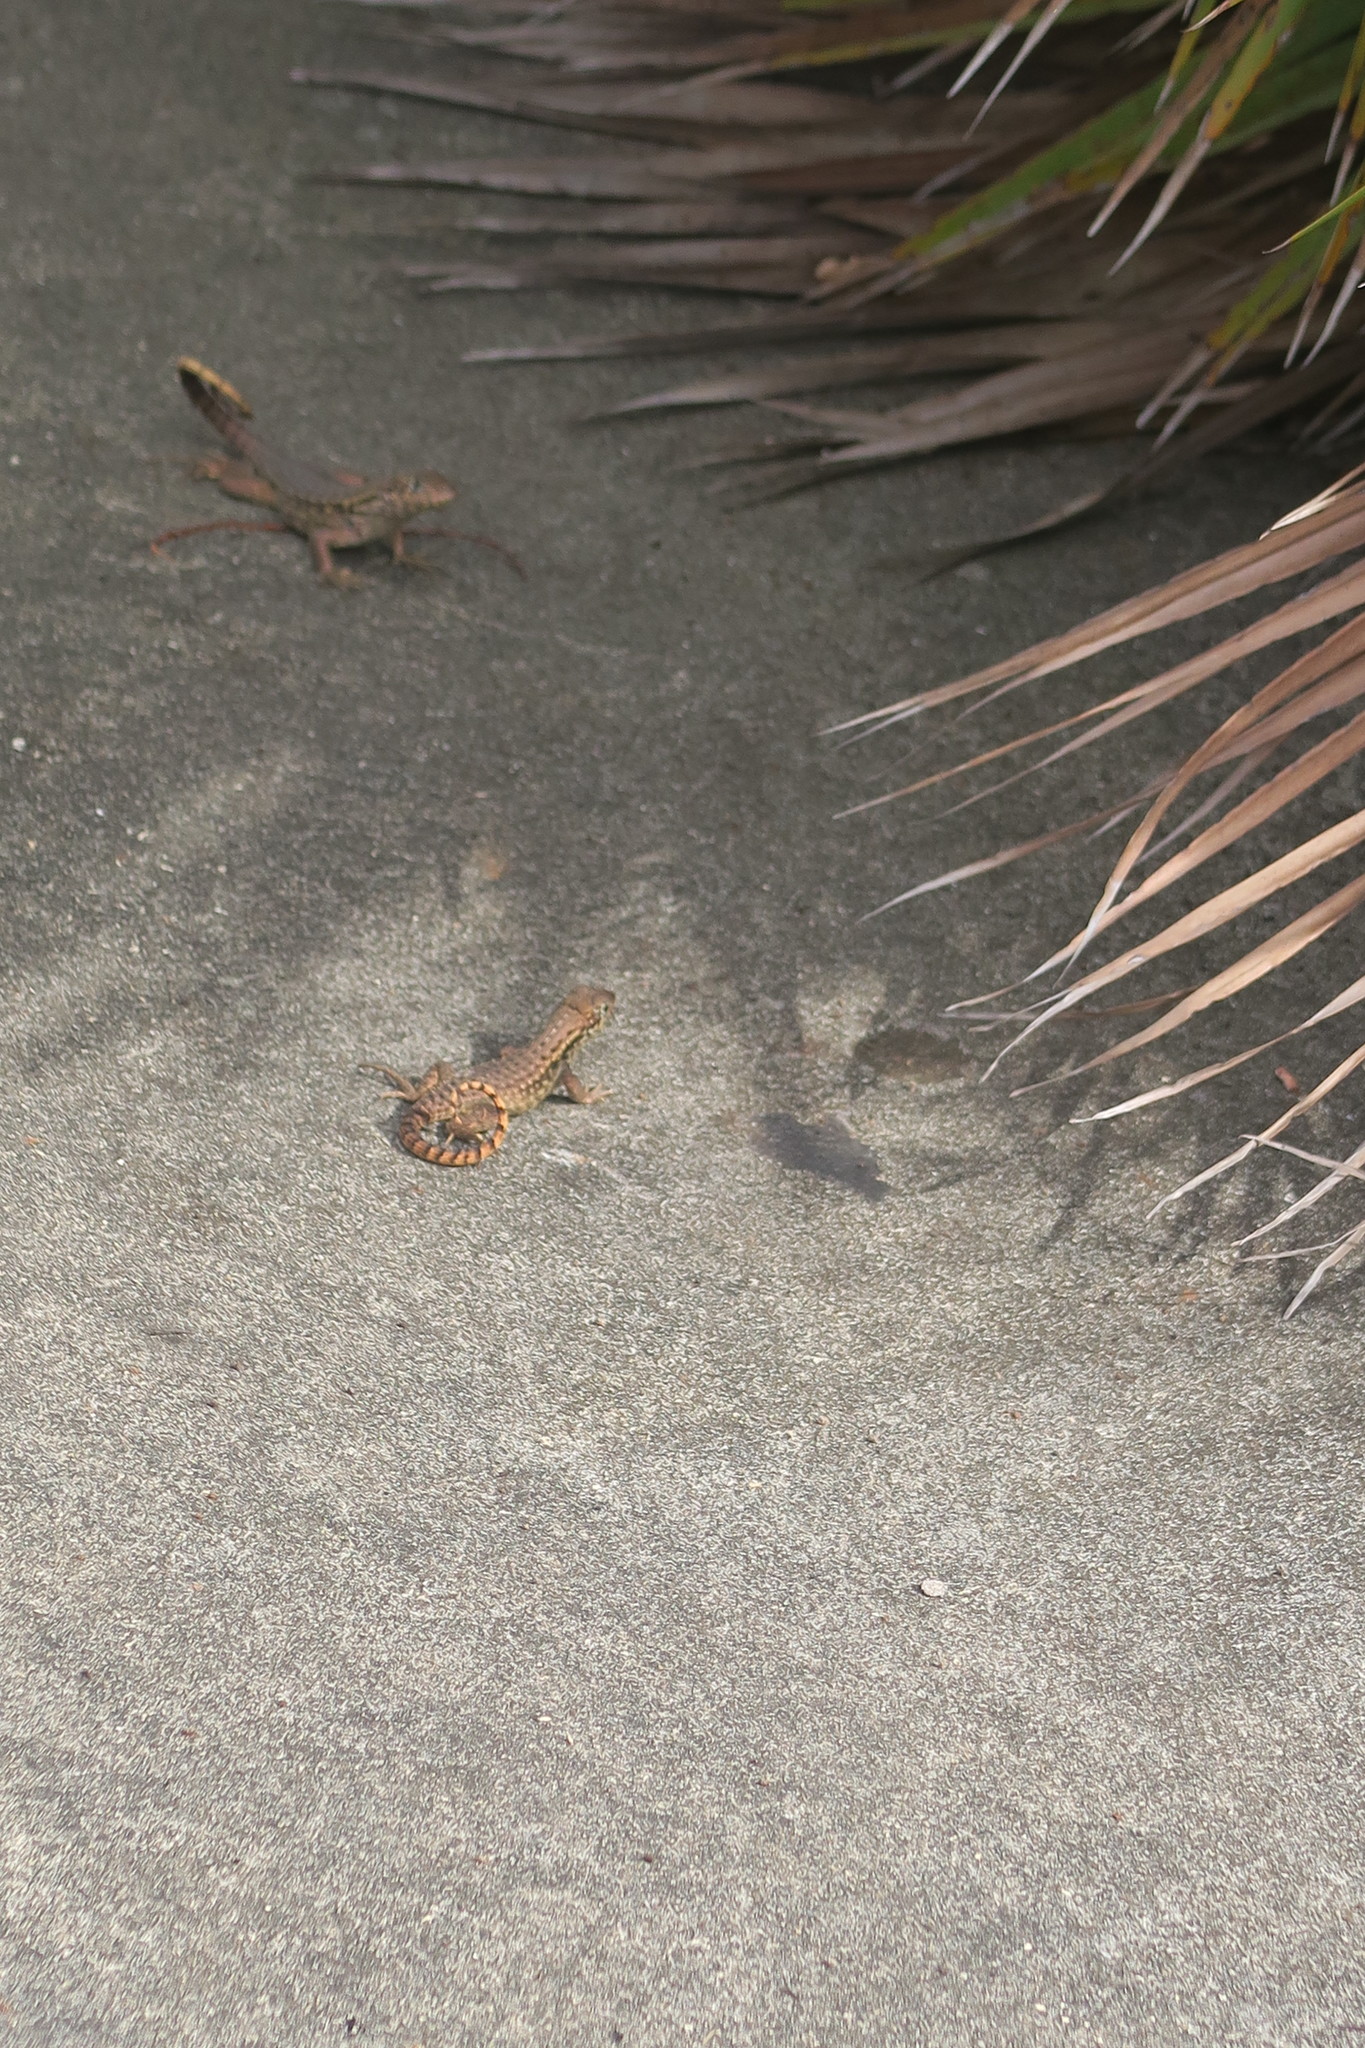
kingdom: Animalia
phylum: Chordata
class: Squamata
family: Leiocephalidae
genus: Leiocephalus
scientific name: Leiocephalus carinatus
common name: Northern curly-tailed lizard
